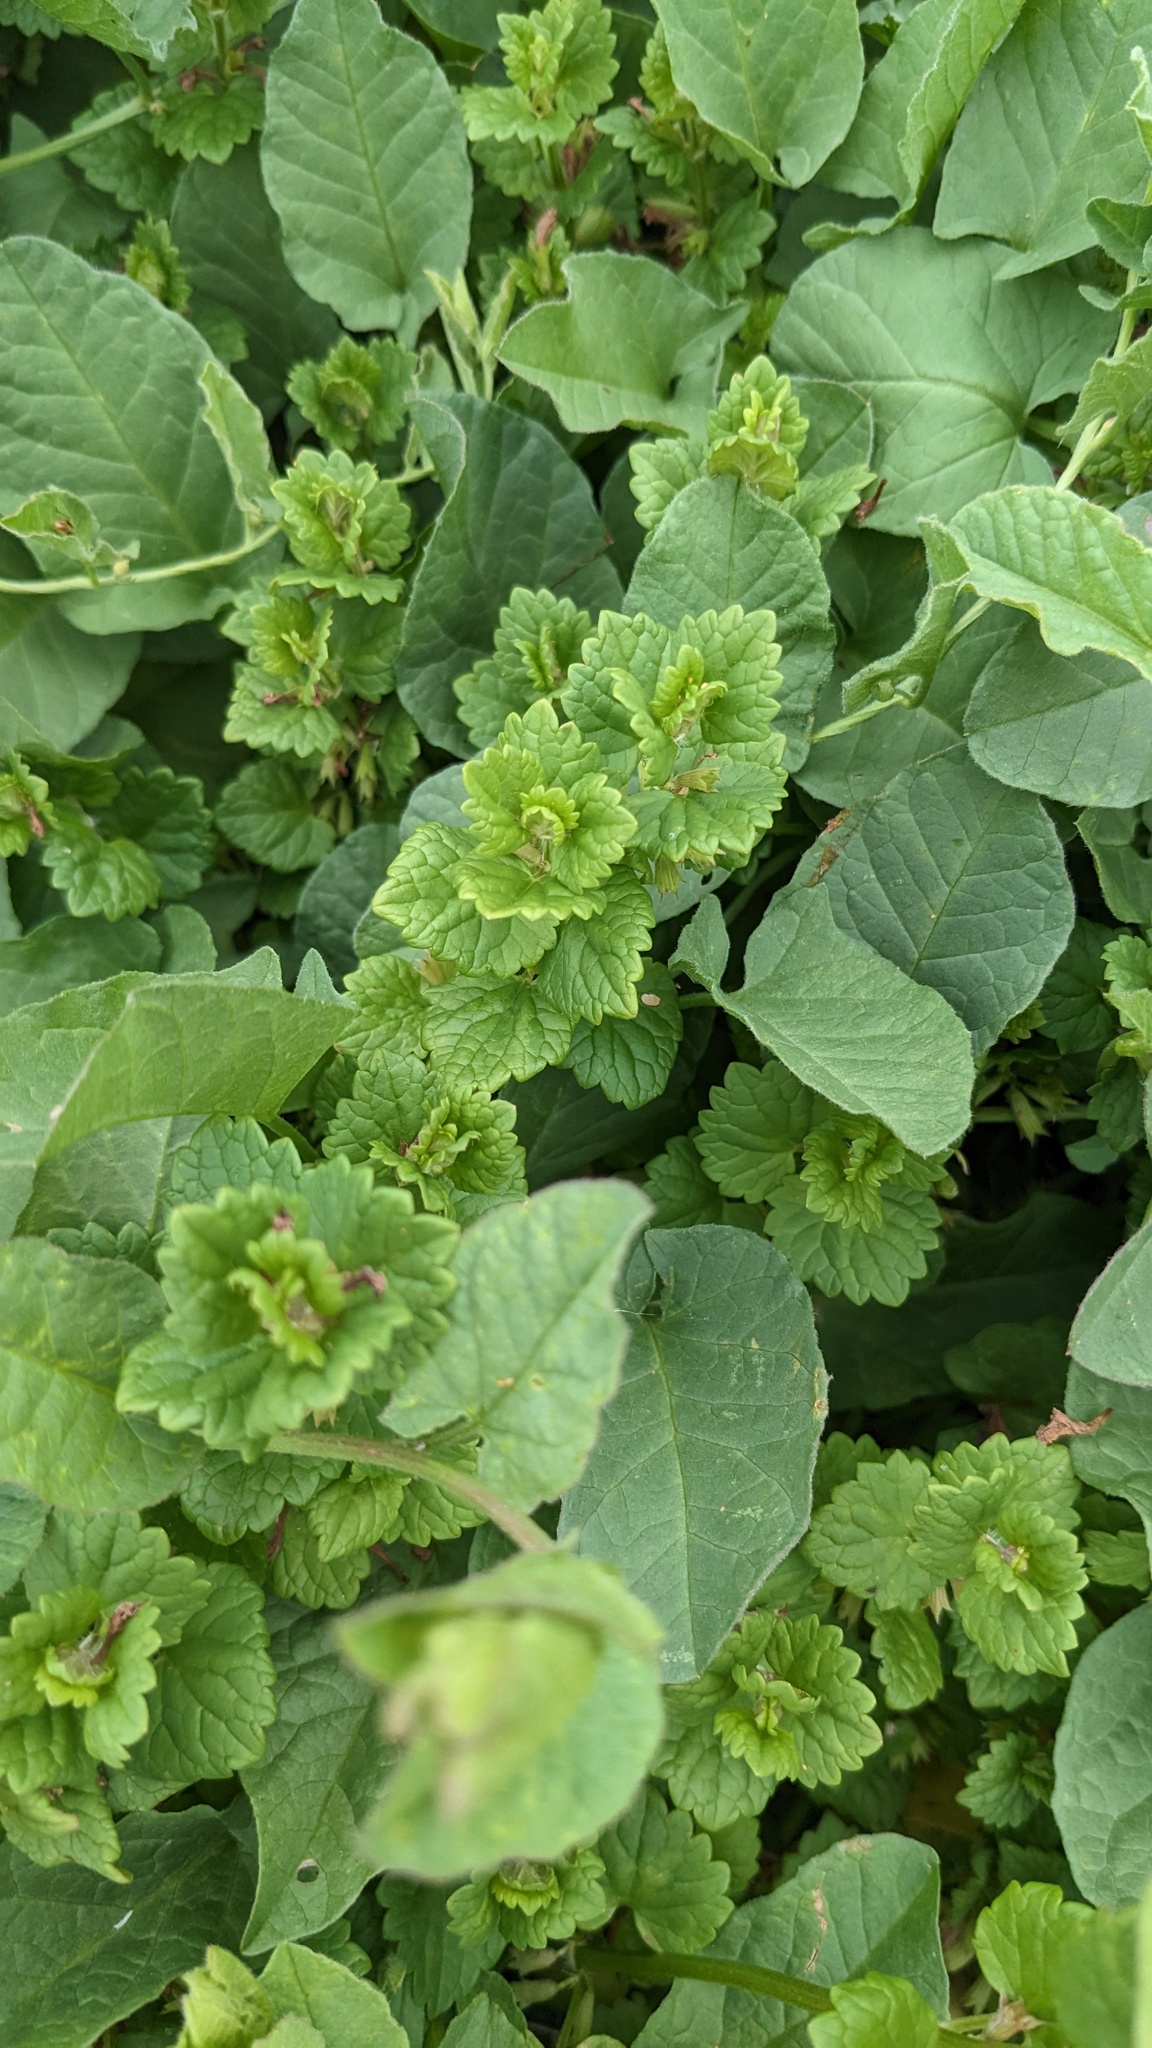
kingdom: Plantae
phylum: Tracheophyta
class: Magnoliopsida
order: Lamiales
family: Lamiaceae
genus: Glechoma
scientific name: Glechoma hederacea
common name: Ground ivy
